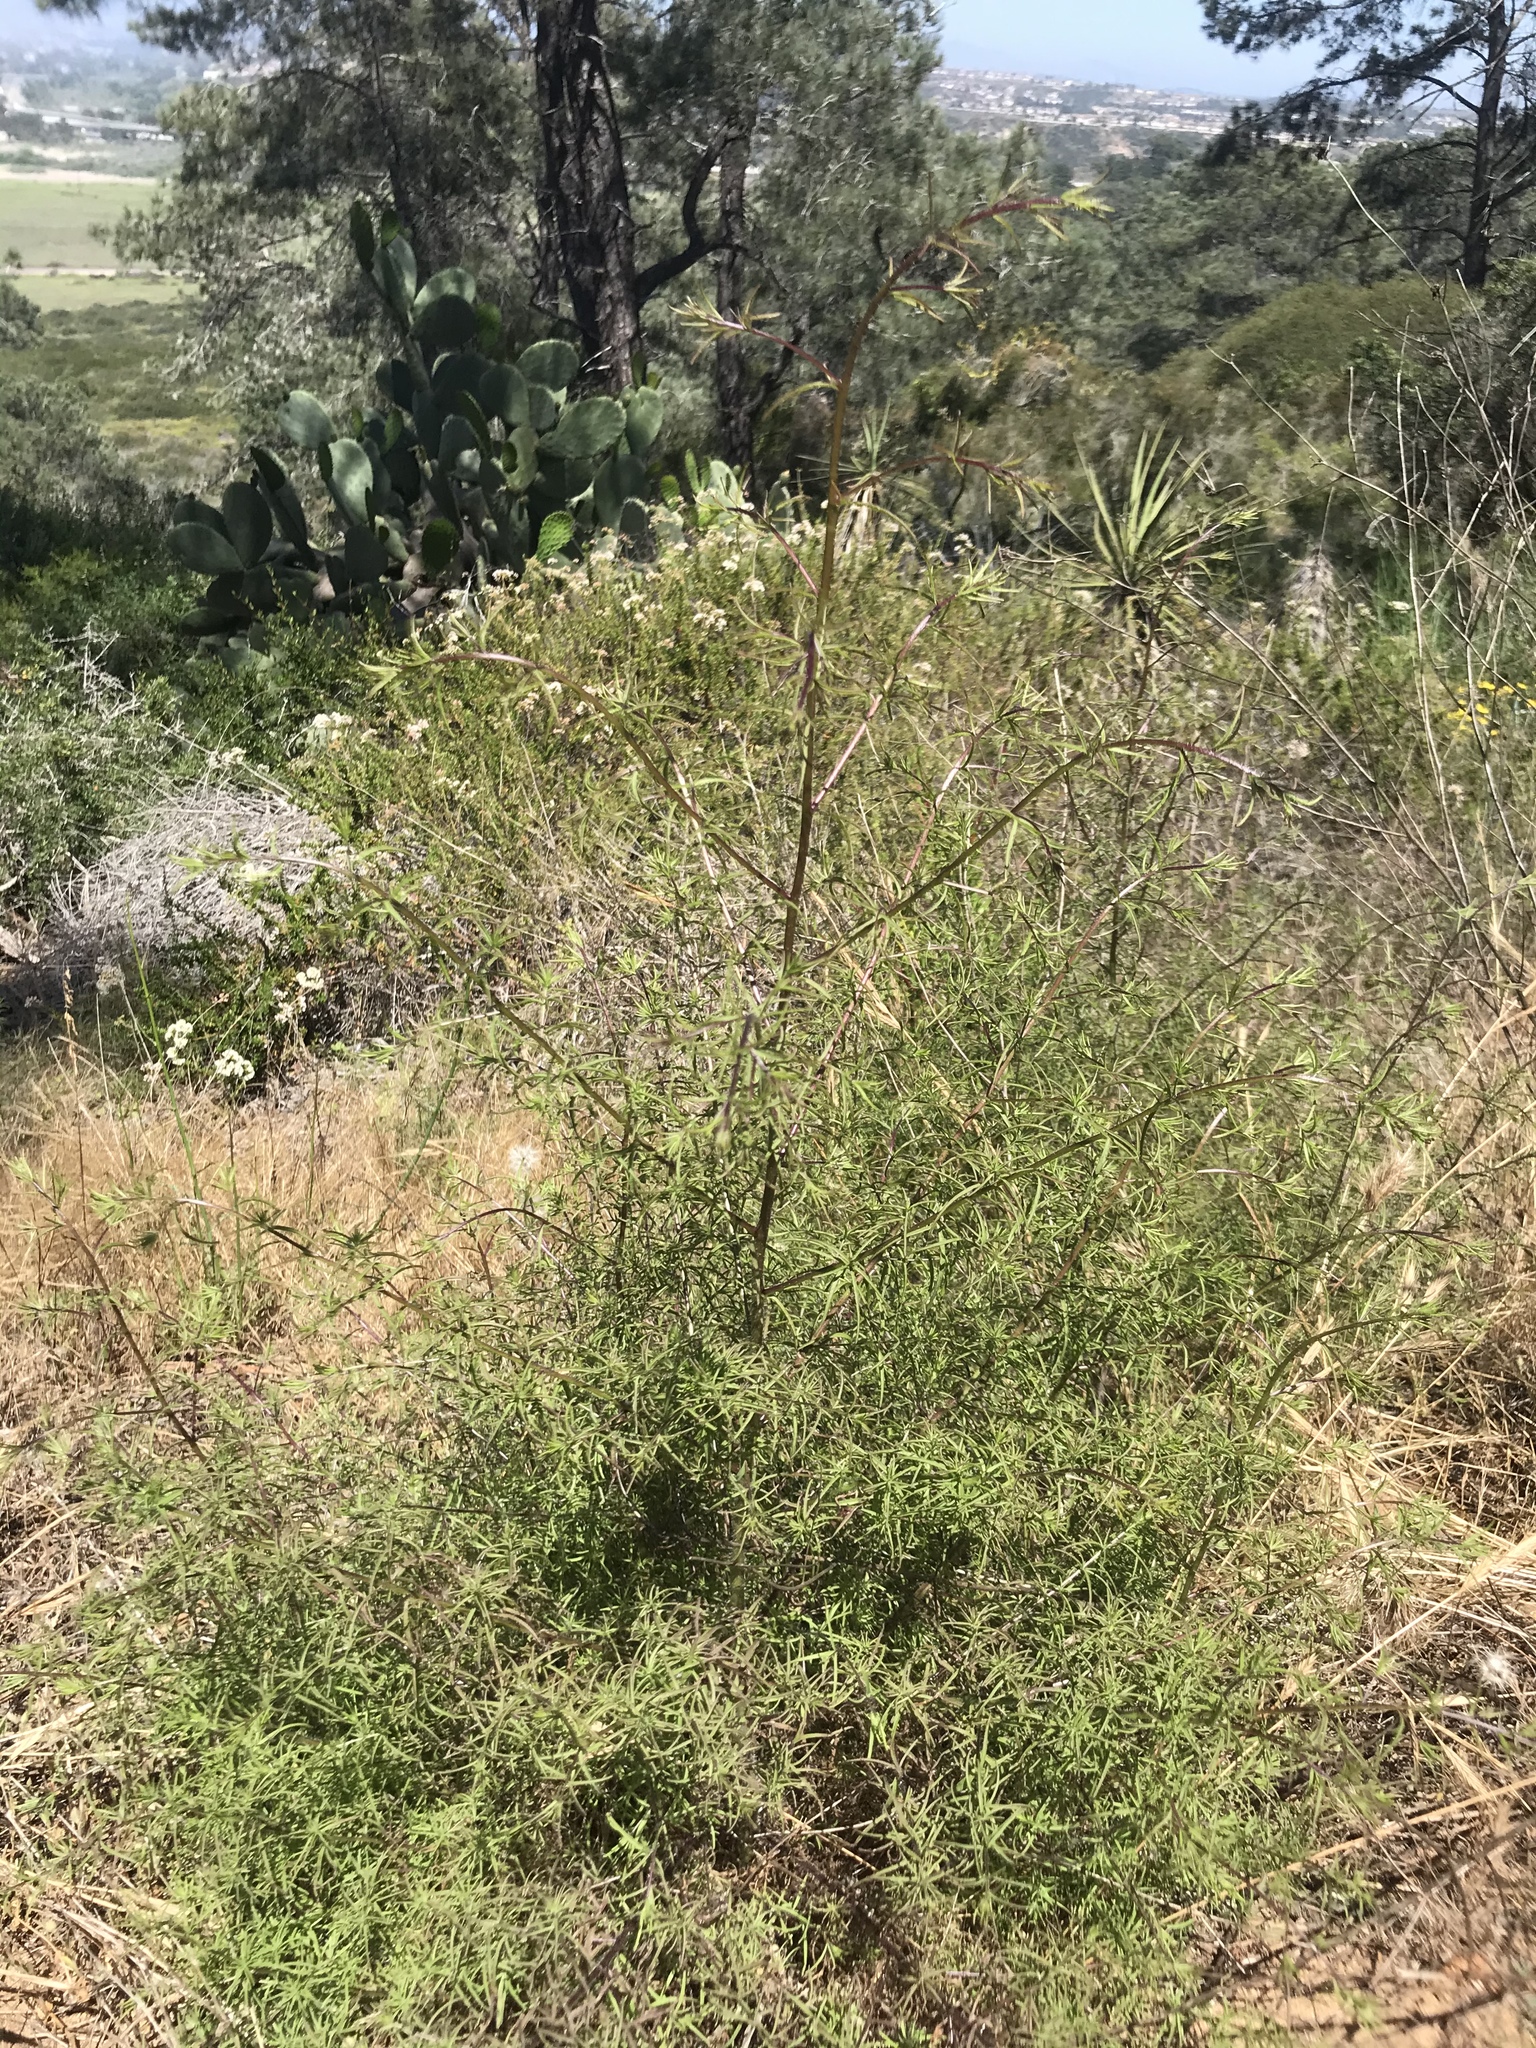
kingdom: Plantae
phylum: Tracheophyta
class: Magnoliopsida
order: Lamiales
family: Orobanchaceae
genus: Cordylanthus
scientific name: Cordylanthus rigidus
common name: Stiff-branch bird's-beak
